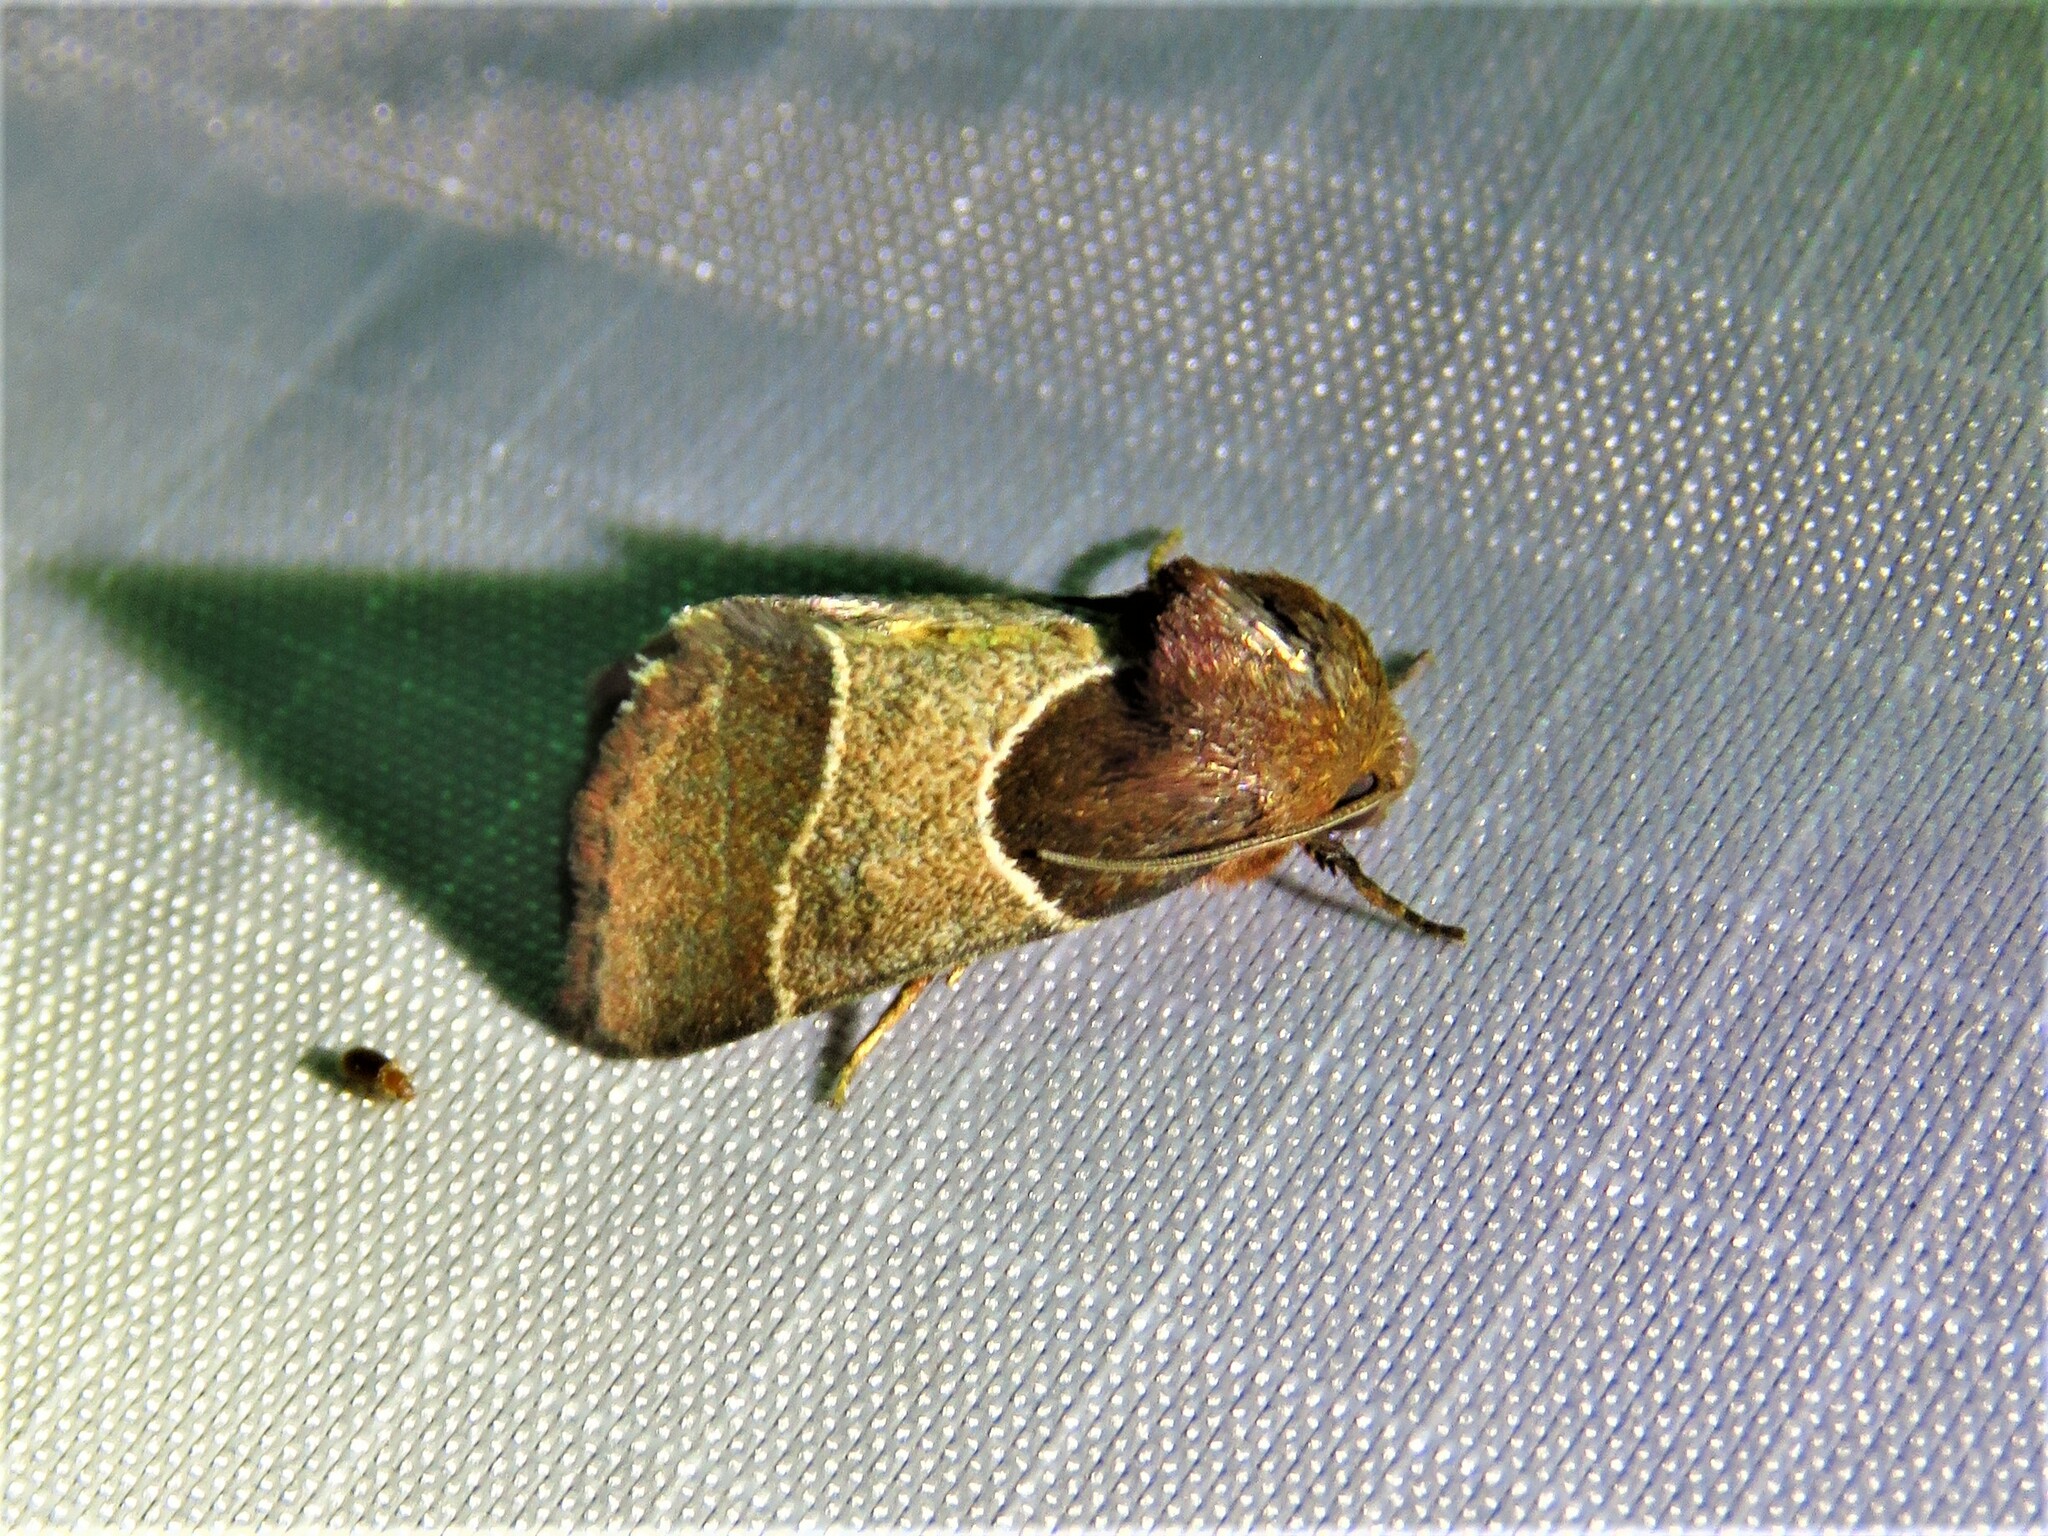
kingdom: Animalia
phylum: Arthropoda
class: Insecta
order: Lepidoptera
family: Noctuidae
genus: Schinia
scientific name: Schinia arcigera
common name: Arcigera flower moth
